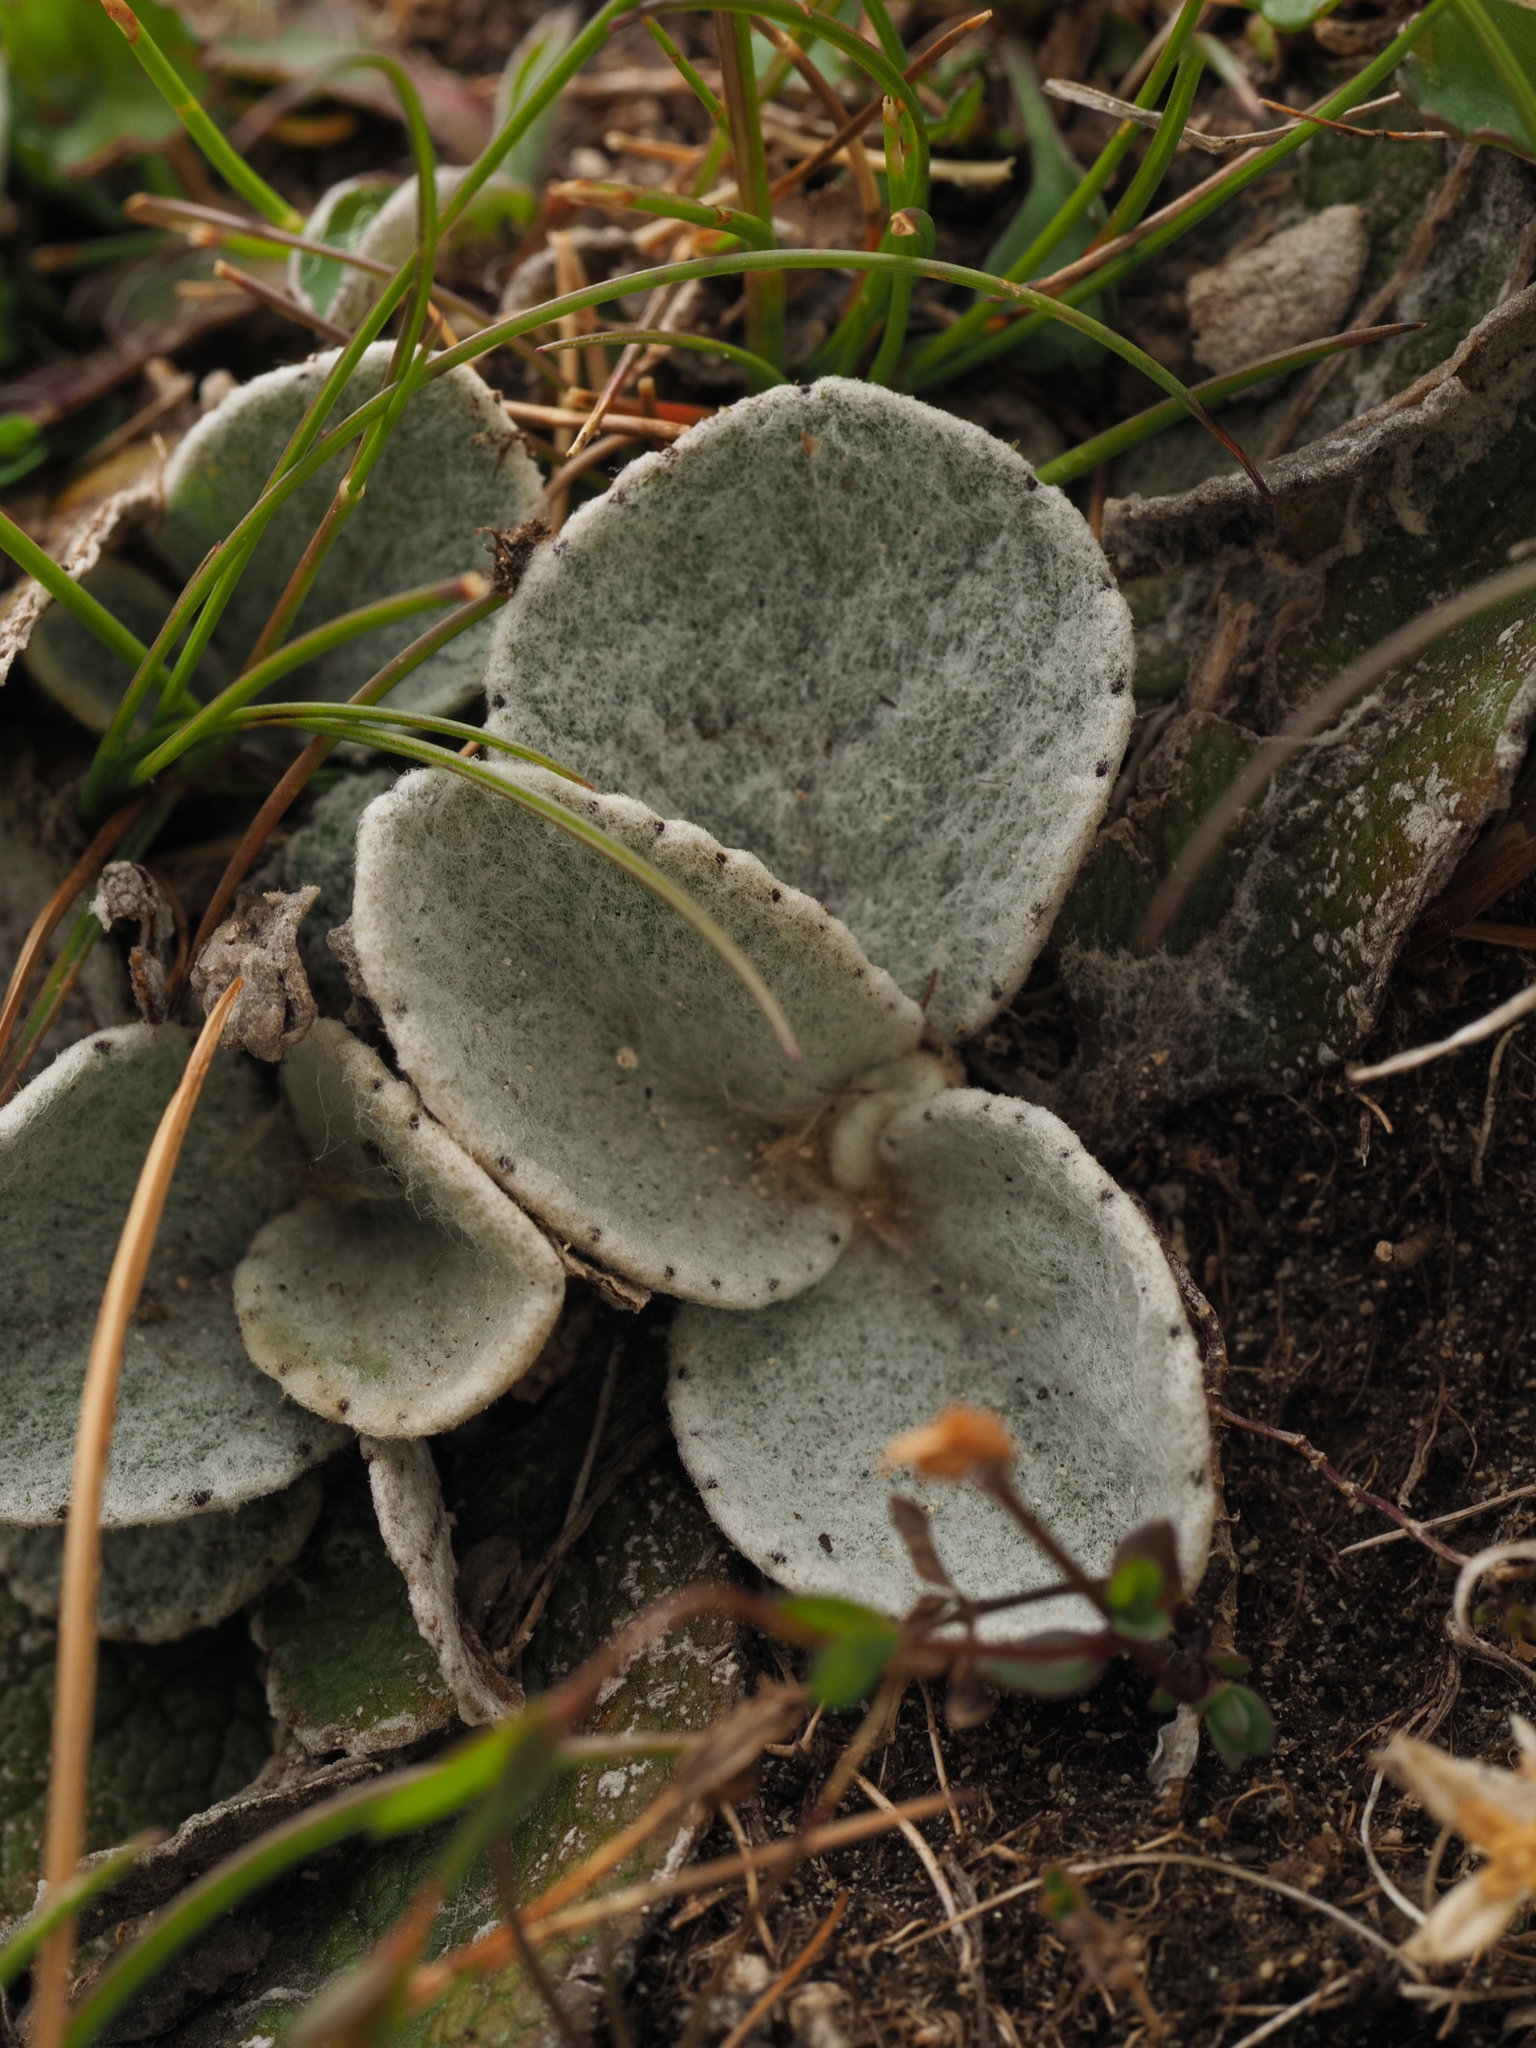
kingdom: Plantae
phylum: Tracheophyta
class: Magnoliopsida
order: Asterales
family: Asteraceae
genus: Brachyglottis
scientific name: Brachyglottis haastii
